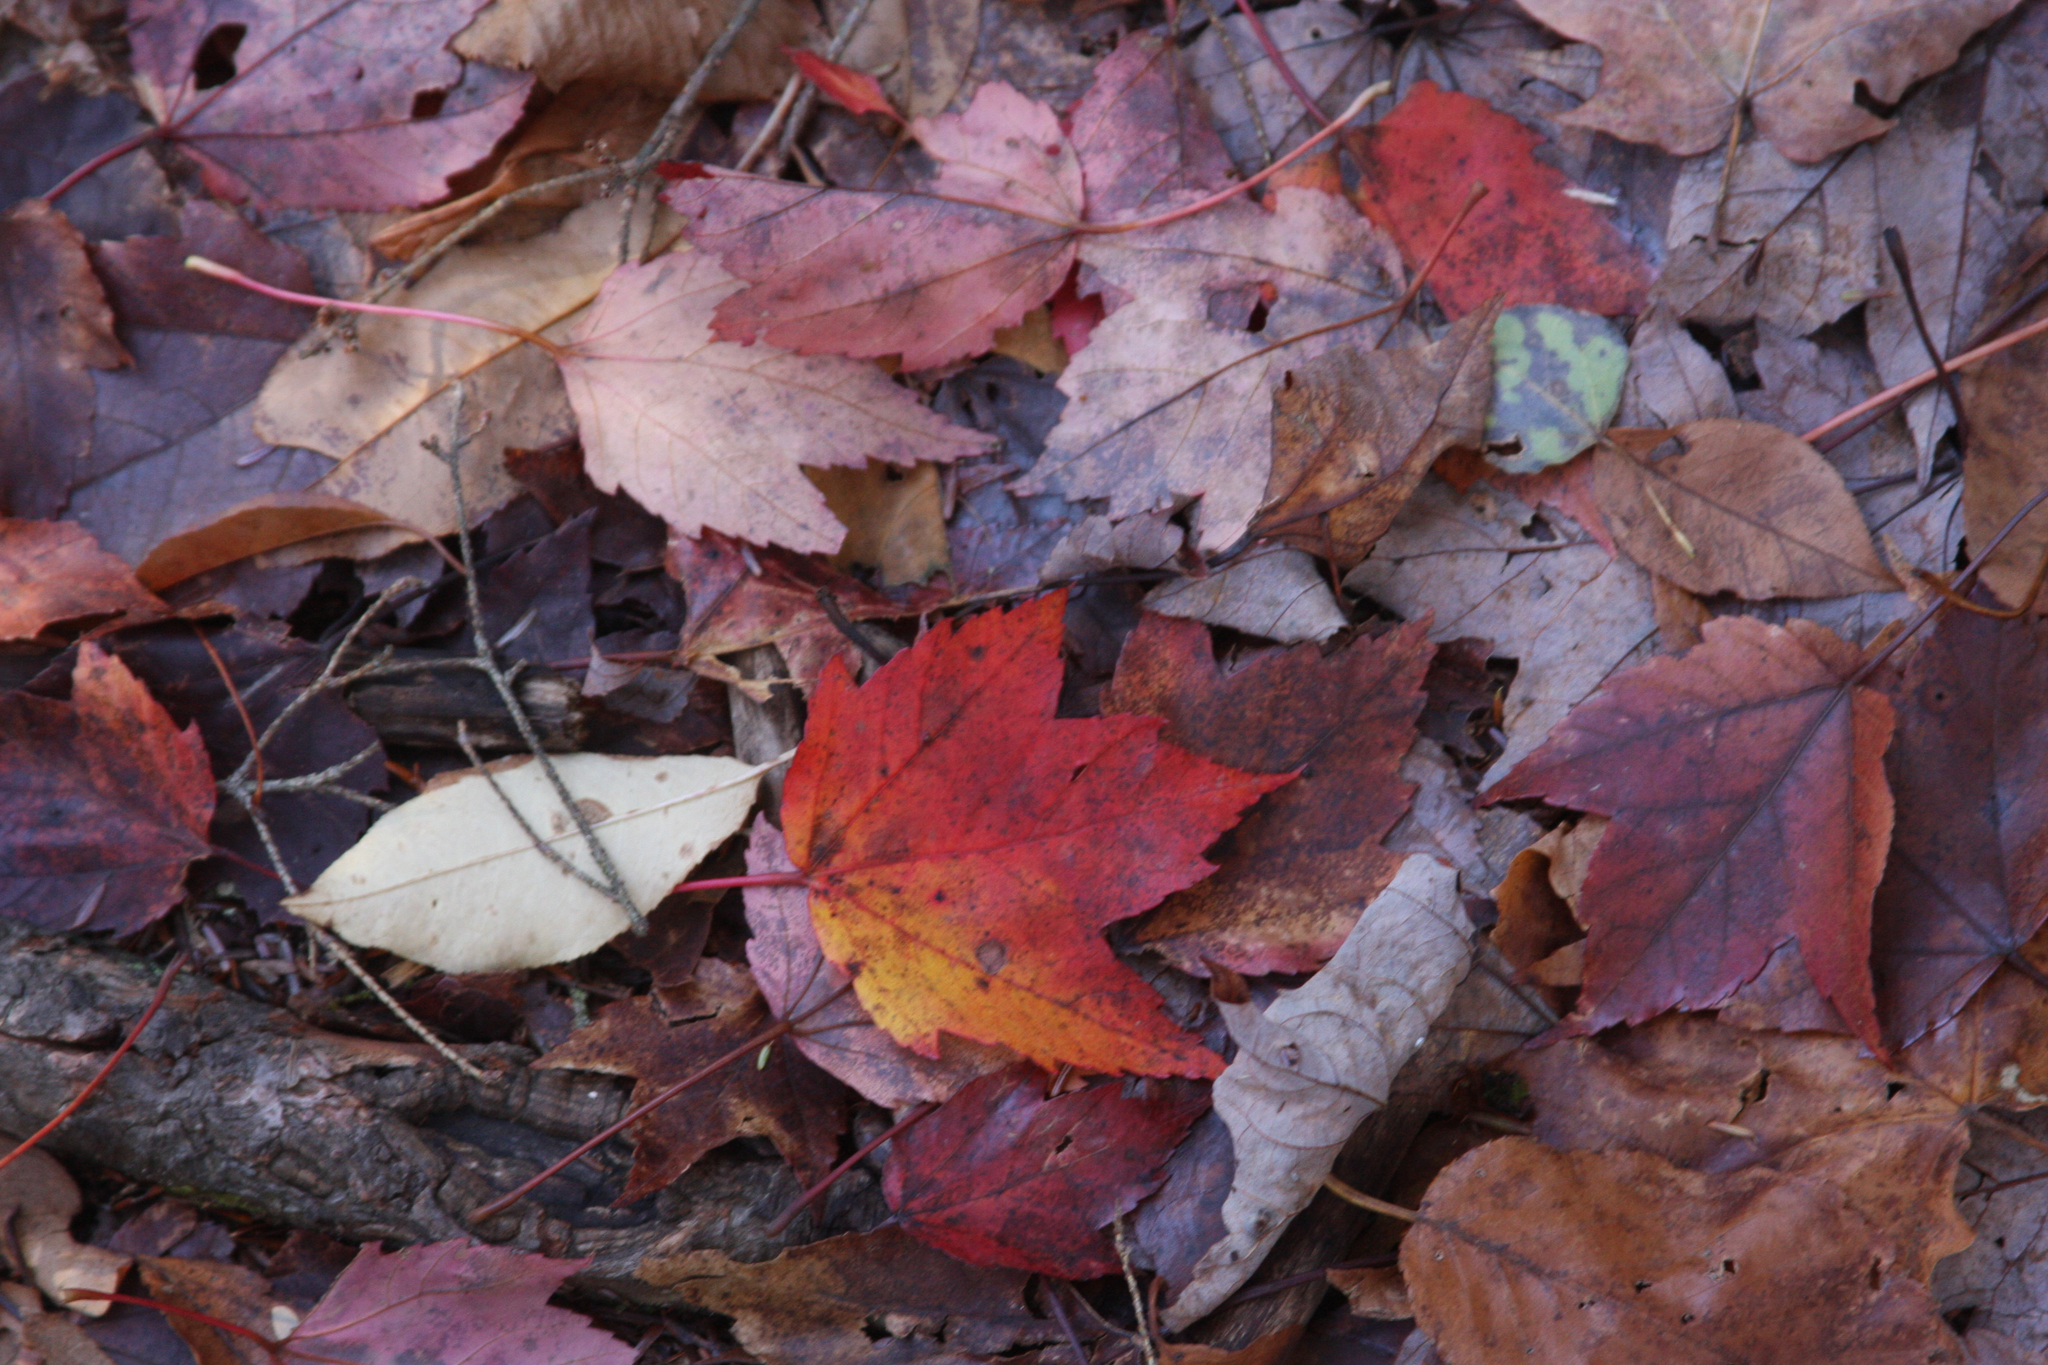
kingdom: Plantae
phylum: Tracheophyta
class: Magnoliopsida
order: Sapindales
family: Sapindaceae
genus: Acer
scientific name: Acer rubrum
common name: Red maple
